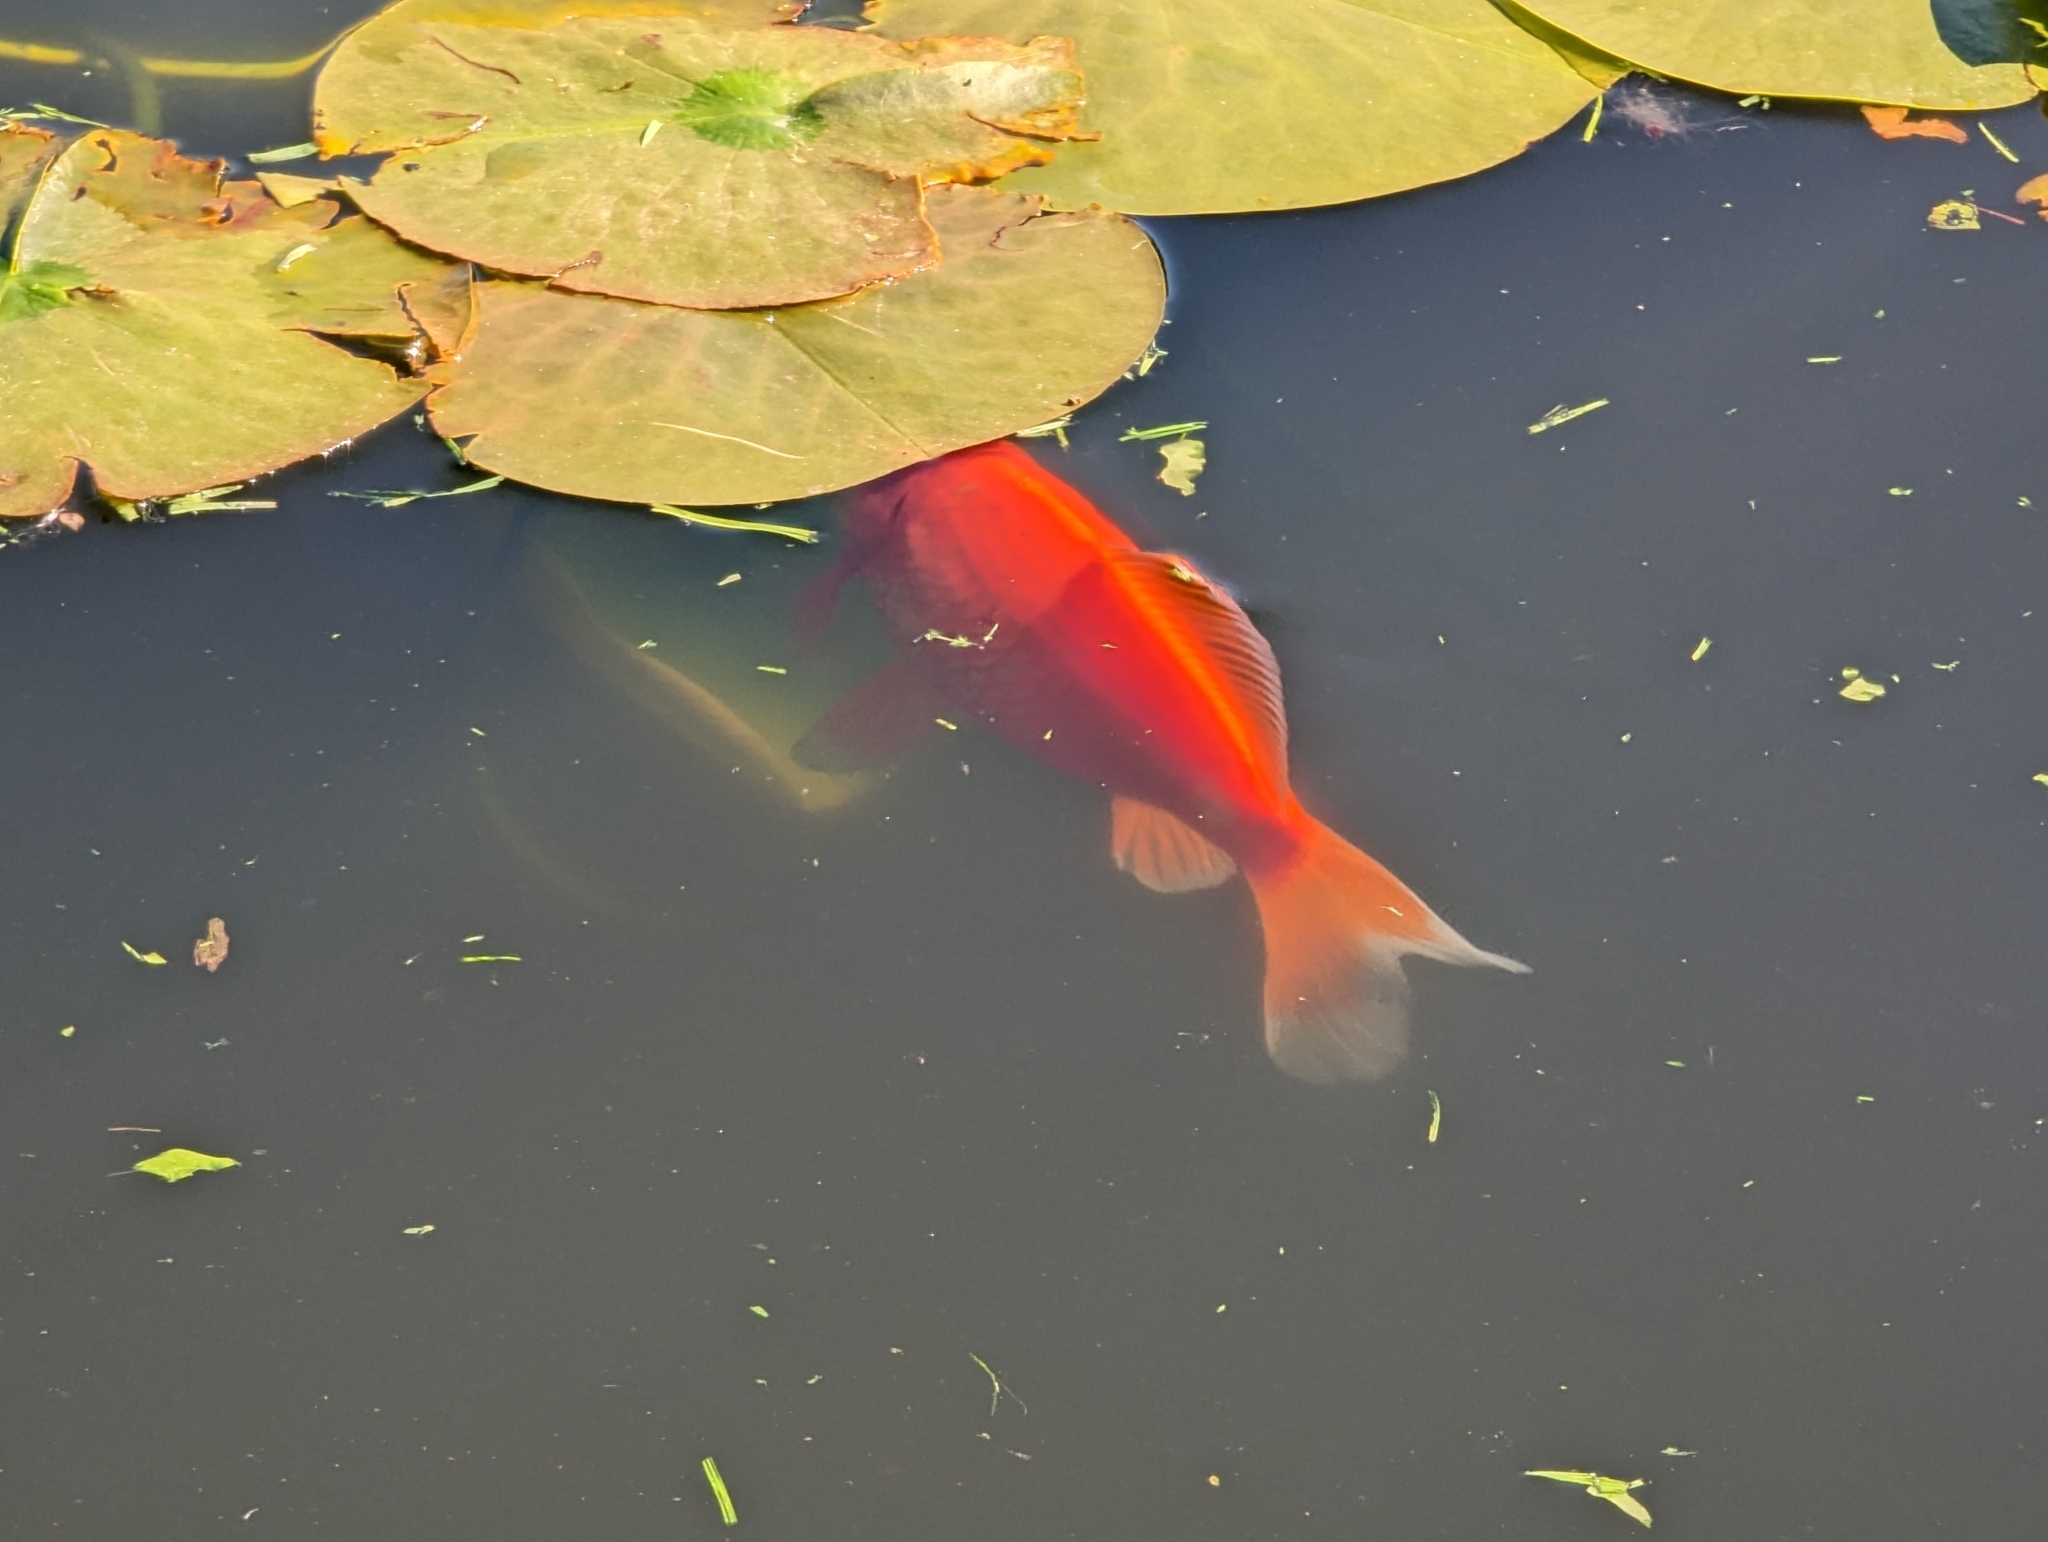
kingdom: Animalia
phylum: Chordata
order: Cypriniformes
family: Cyprinidae
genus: Carassius
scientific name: Carassius auratus
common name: Goldfish
